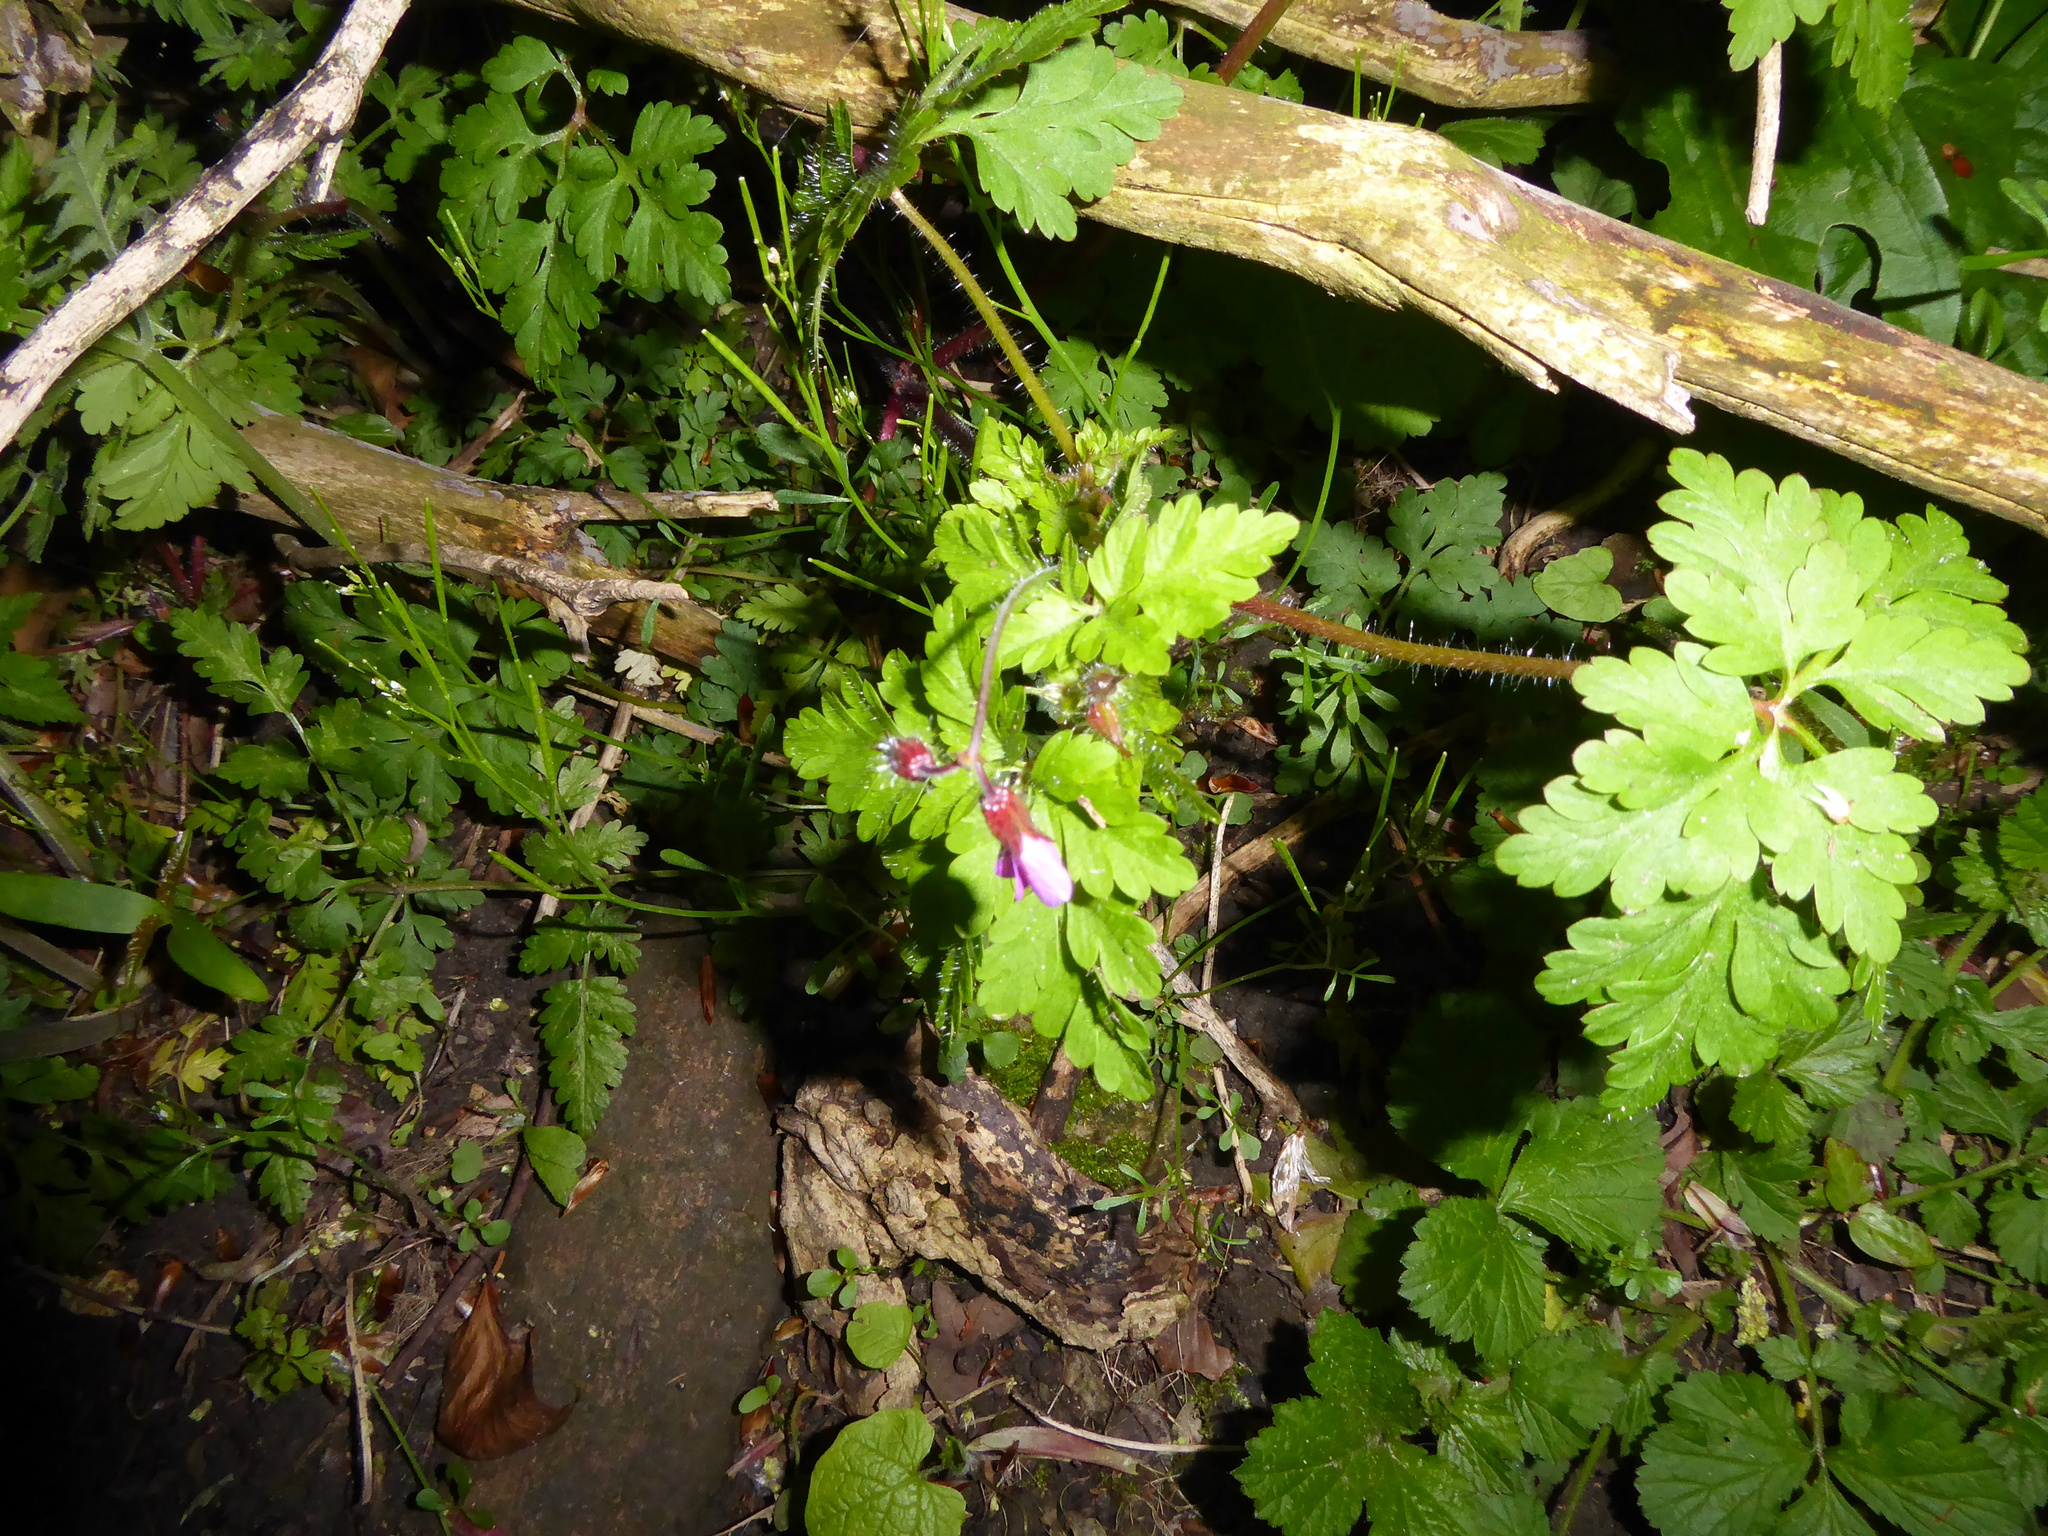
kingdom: Plantae
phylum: Tracheophyta
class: Magnoliopsida
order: Geraniales
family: Geraniaceae
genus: Geranium
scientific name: Geranium robertianum
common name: Herb-robert
